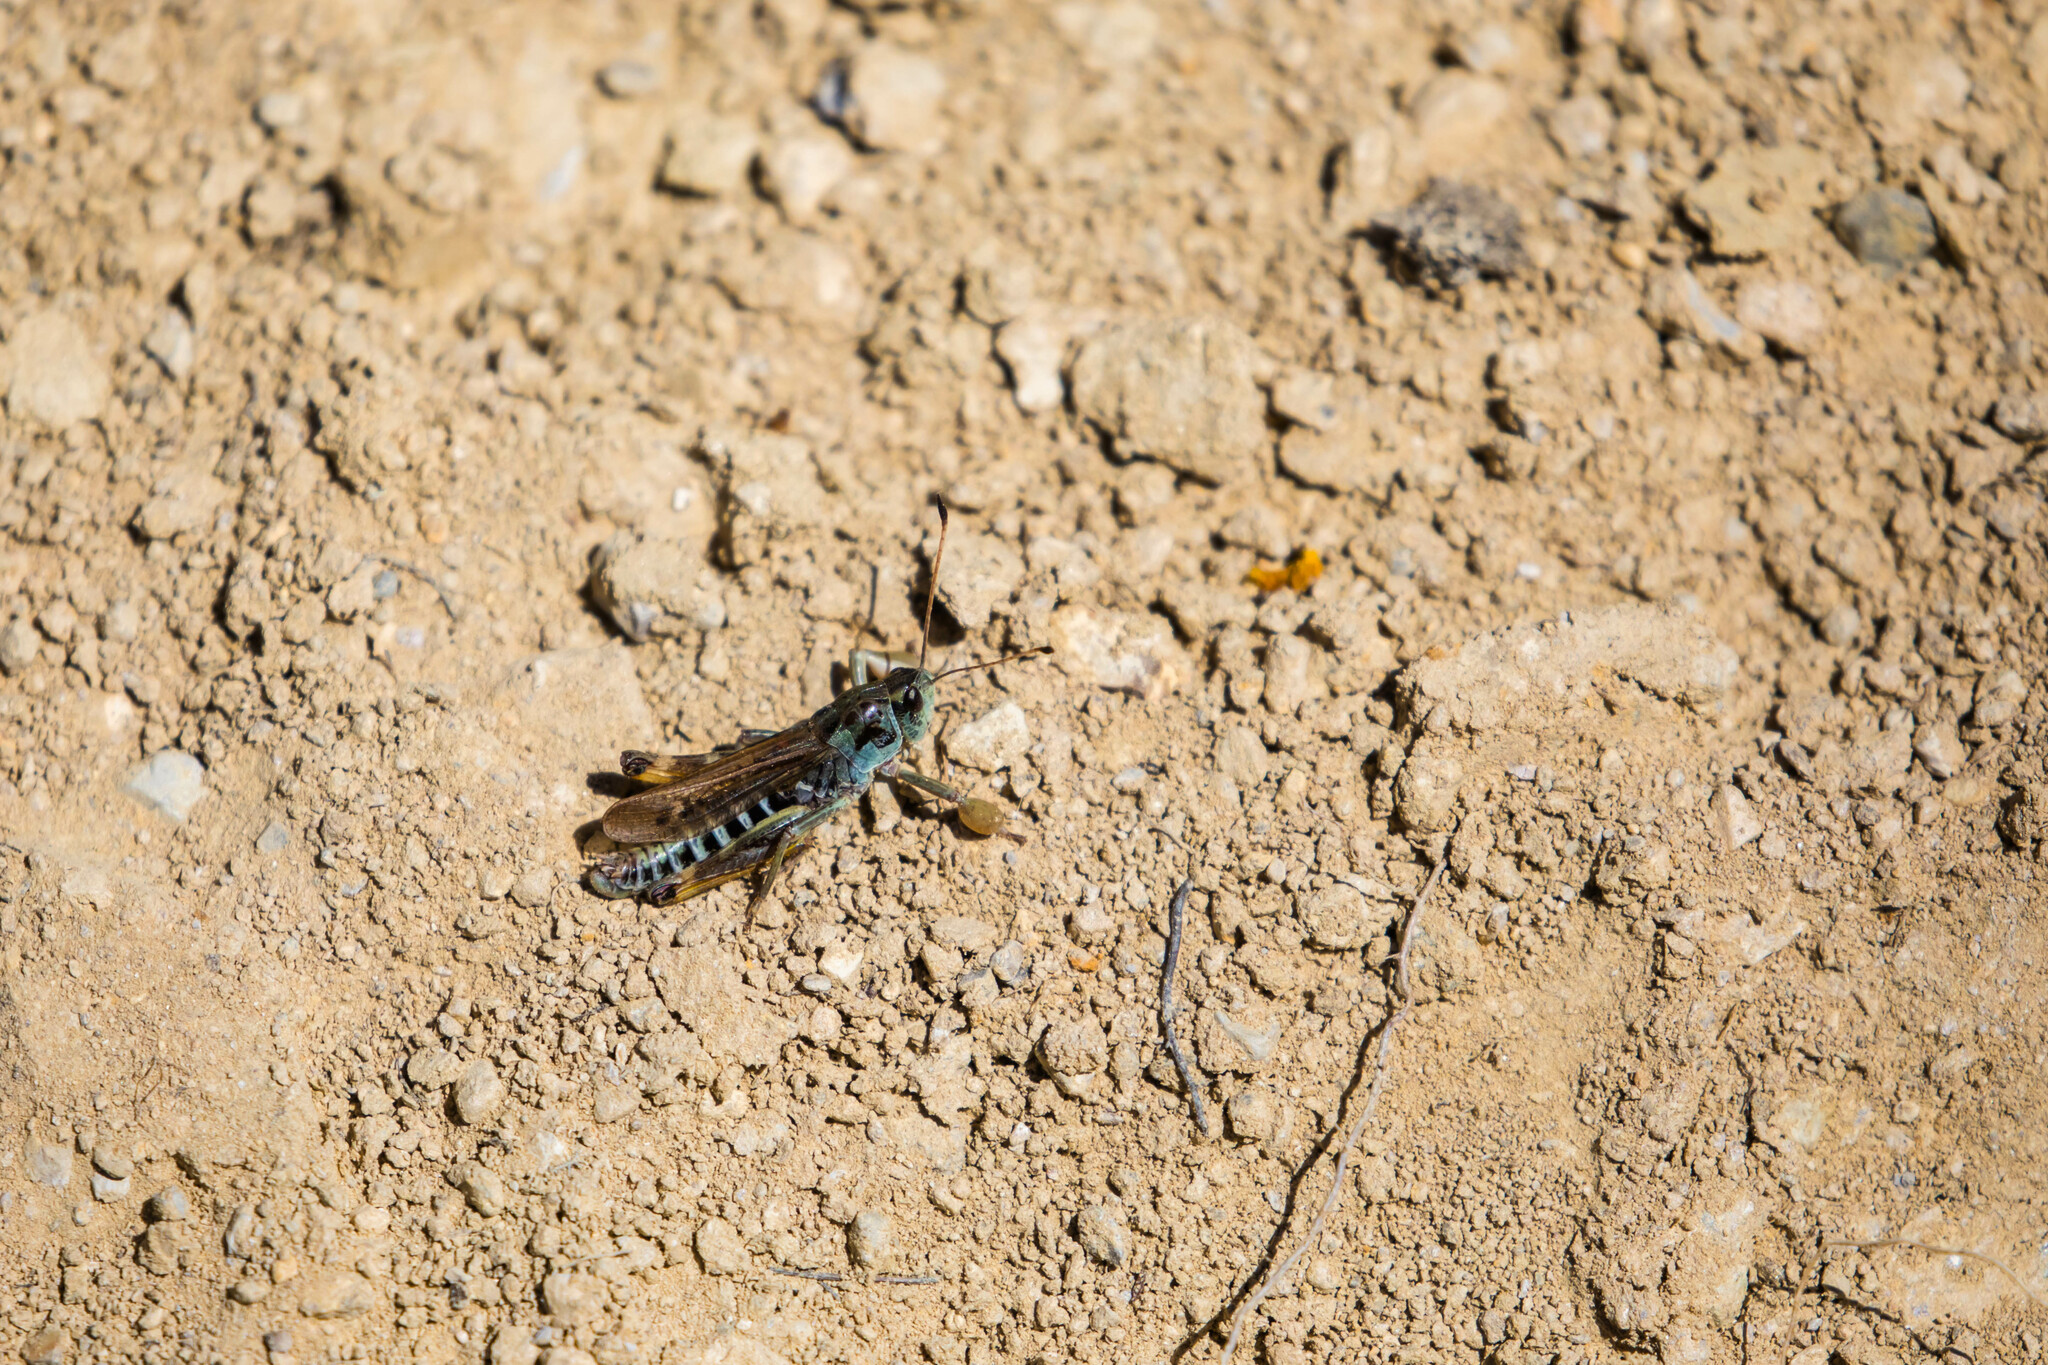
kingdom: Animalia
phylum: Arthropoda
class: Insecta
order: Orthoptera
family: Acrididae
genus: Gomphocerus
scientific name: Gomphocerus sibiricus
